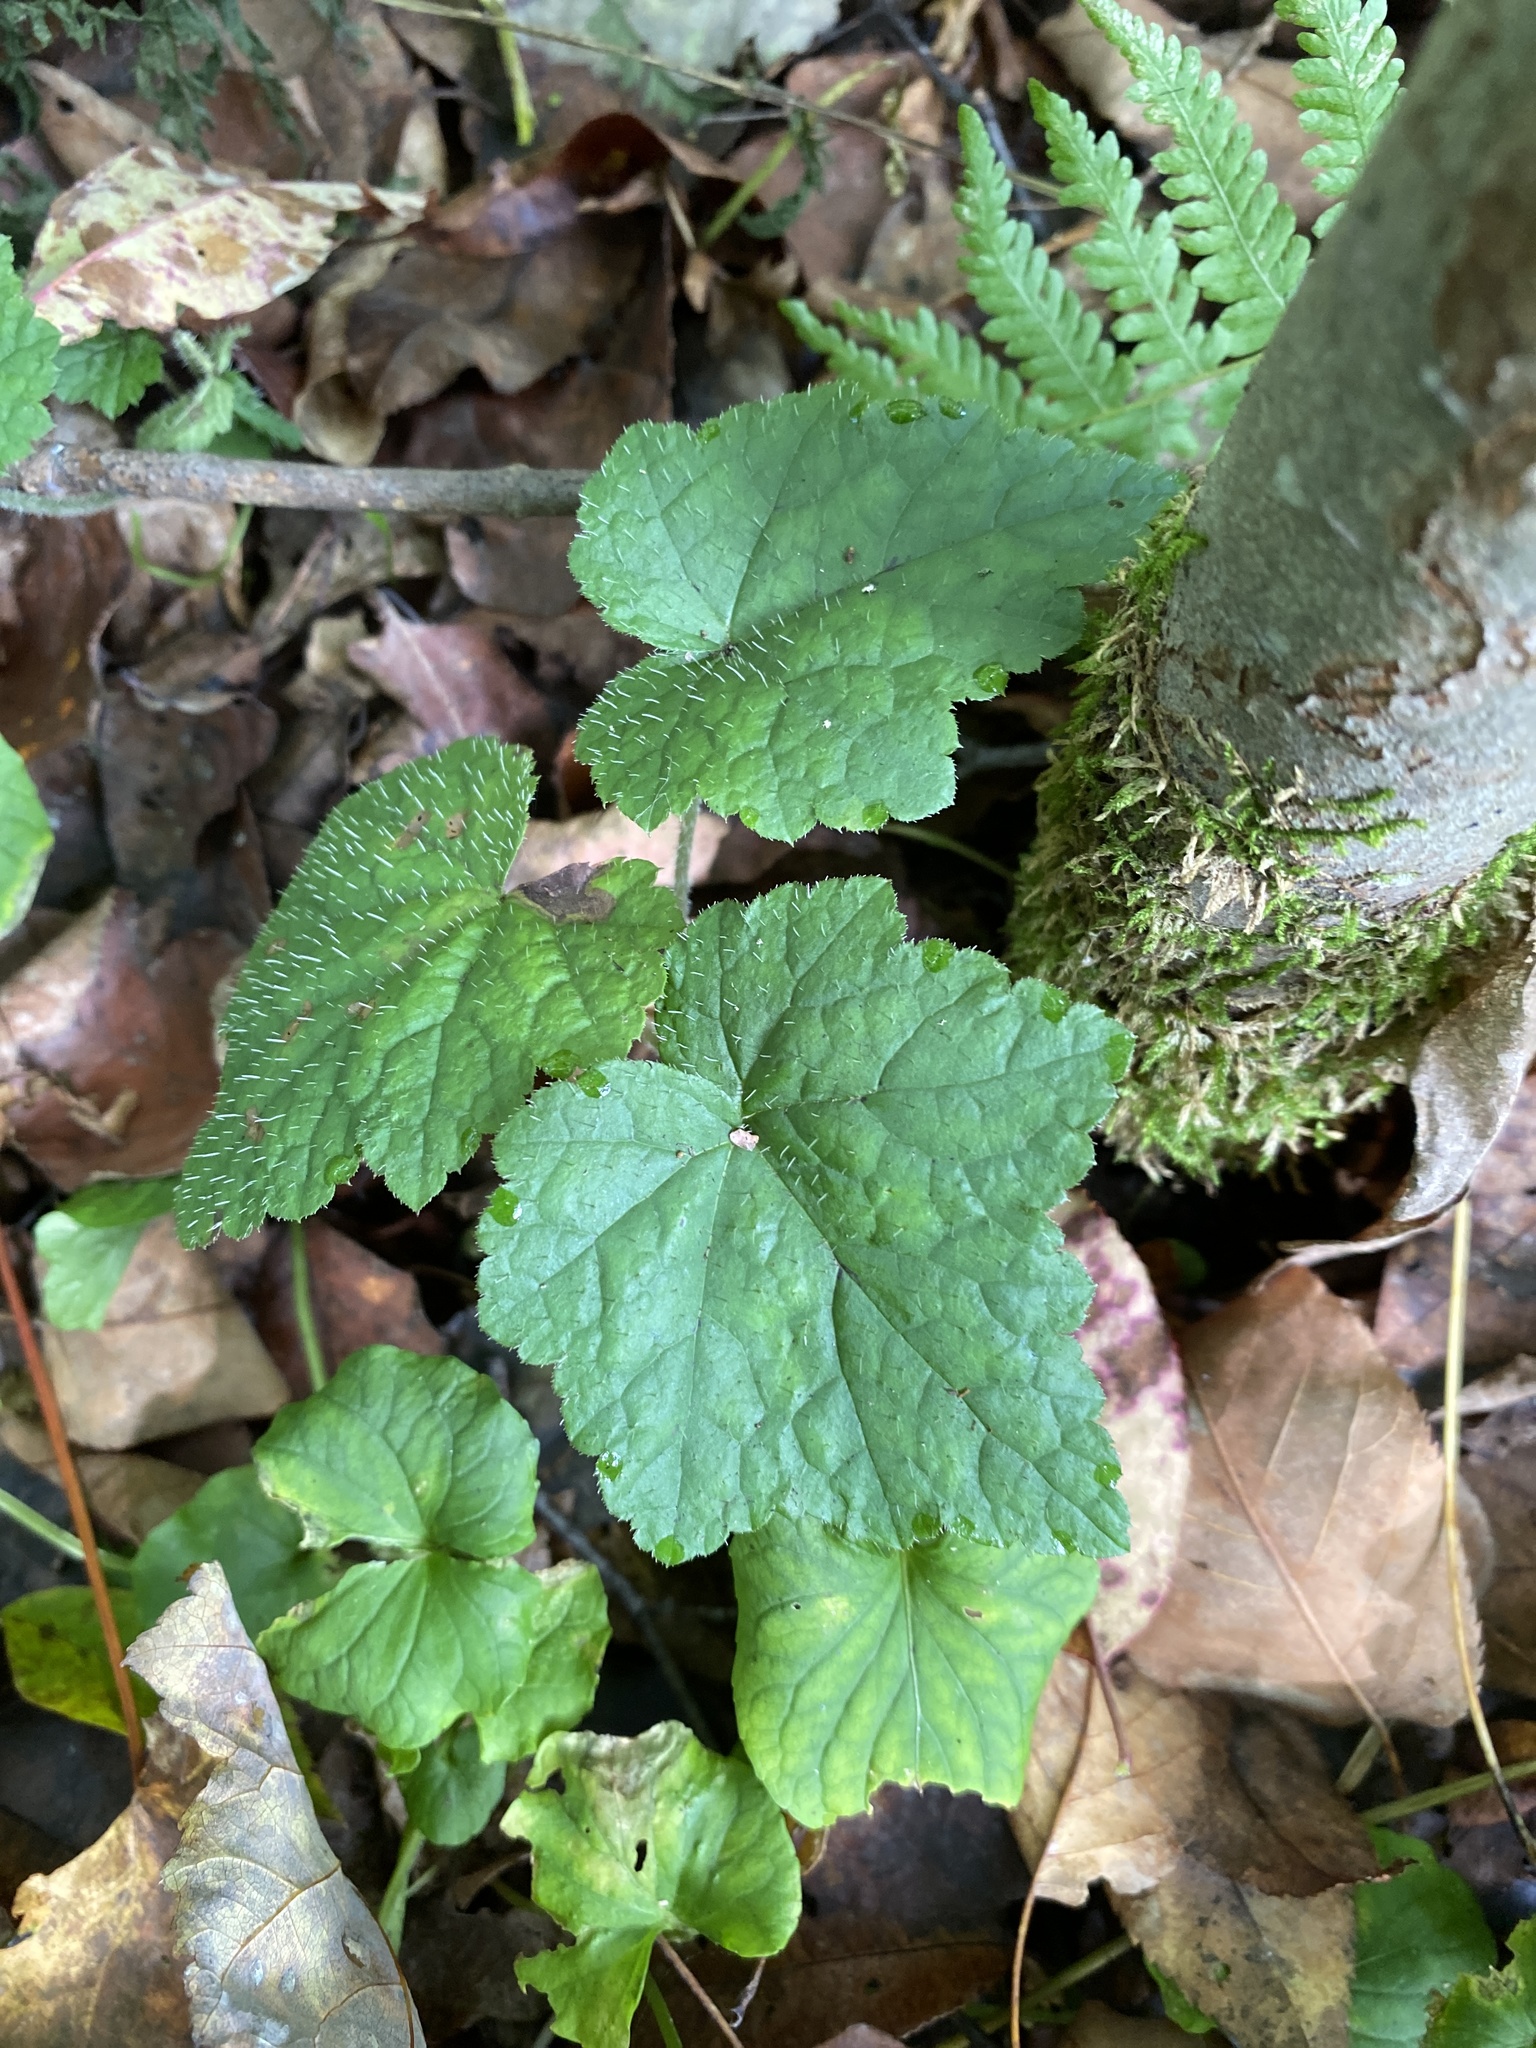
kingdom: Plantae
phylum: Tracheophyta
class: Magnoliopsida
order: Saxifragales
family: Saxifragaceae
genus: Tiarella
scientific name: Tiarella stolonifera
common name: Stoloniferous foamflower
